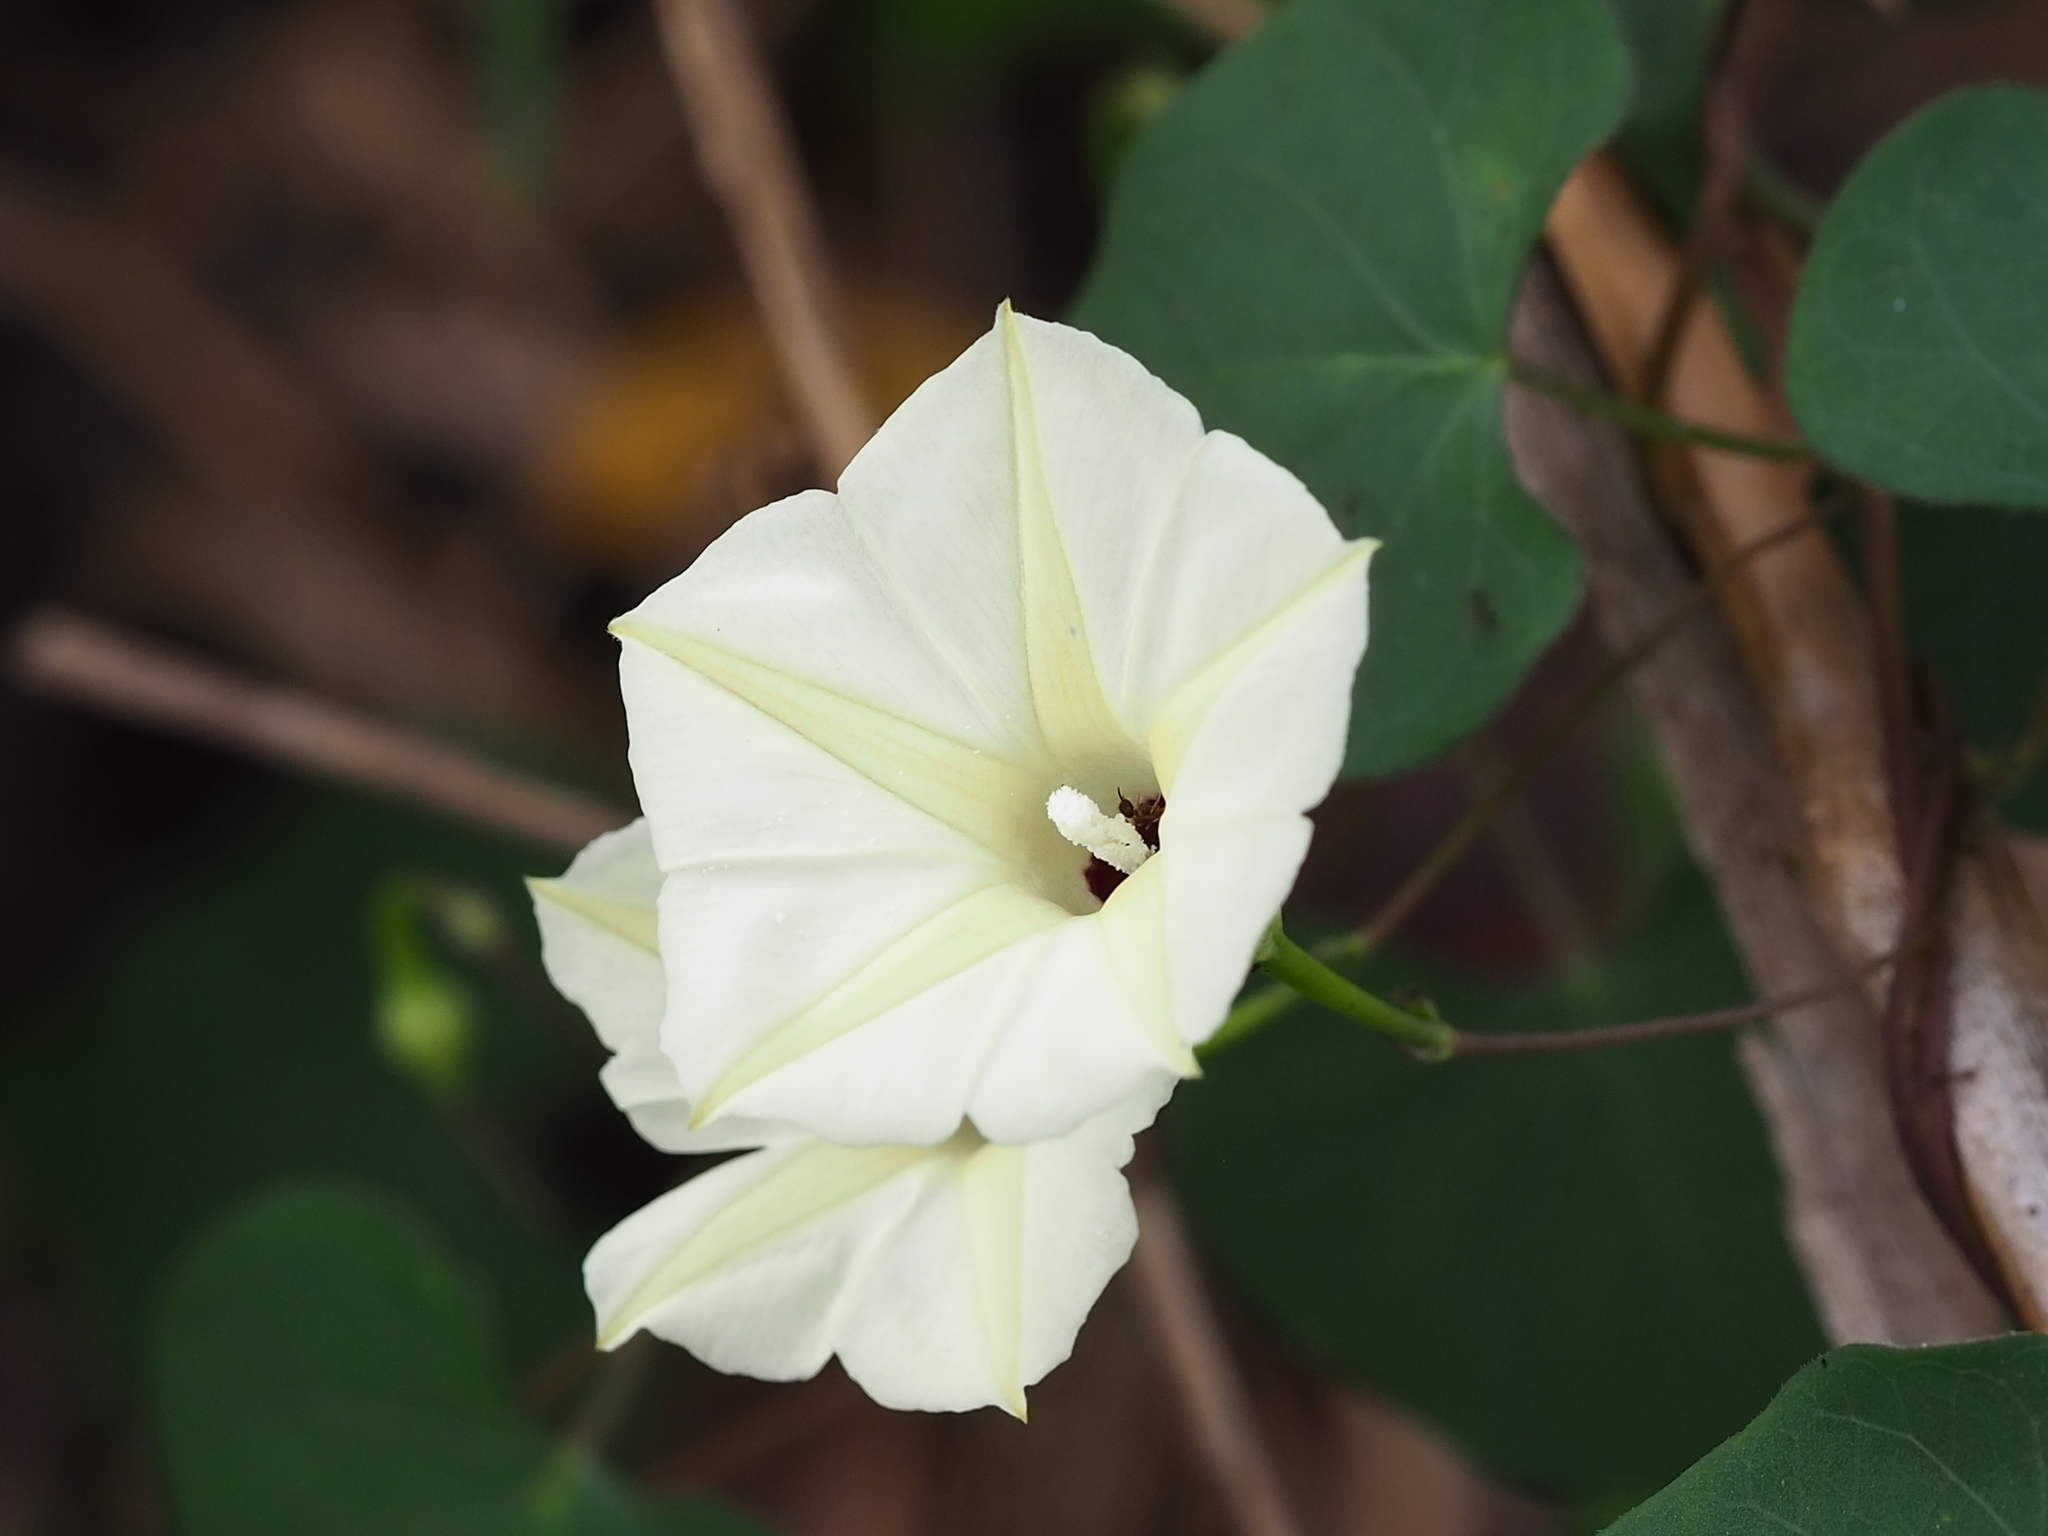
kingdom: Plantae
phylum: Tracheophyta
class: Magnoliopsida
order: Solanales
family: Convolvulaceae
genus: Ipomoea
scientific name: Ipomoea obscura
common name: Obscure morning-glory
